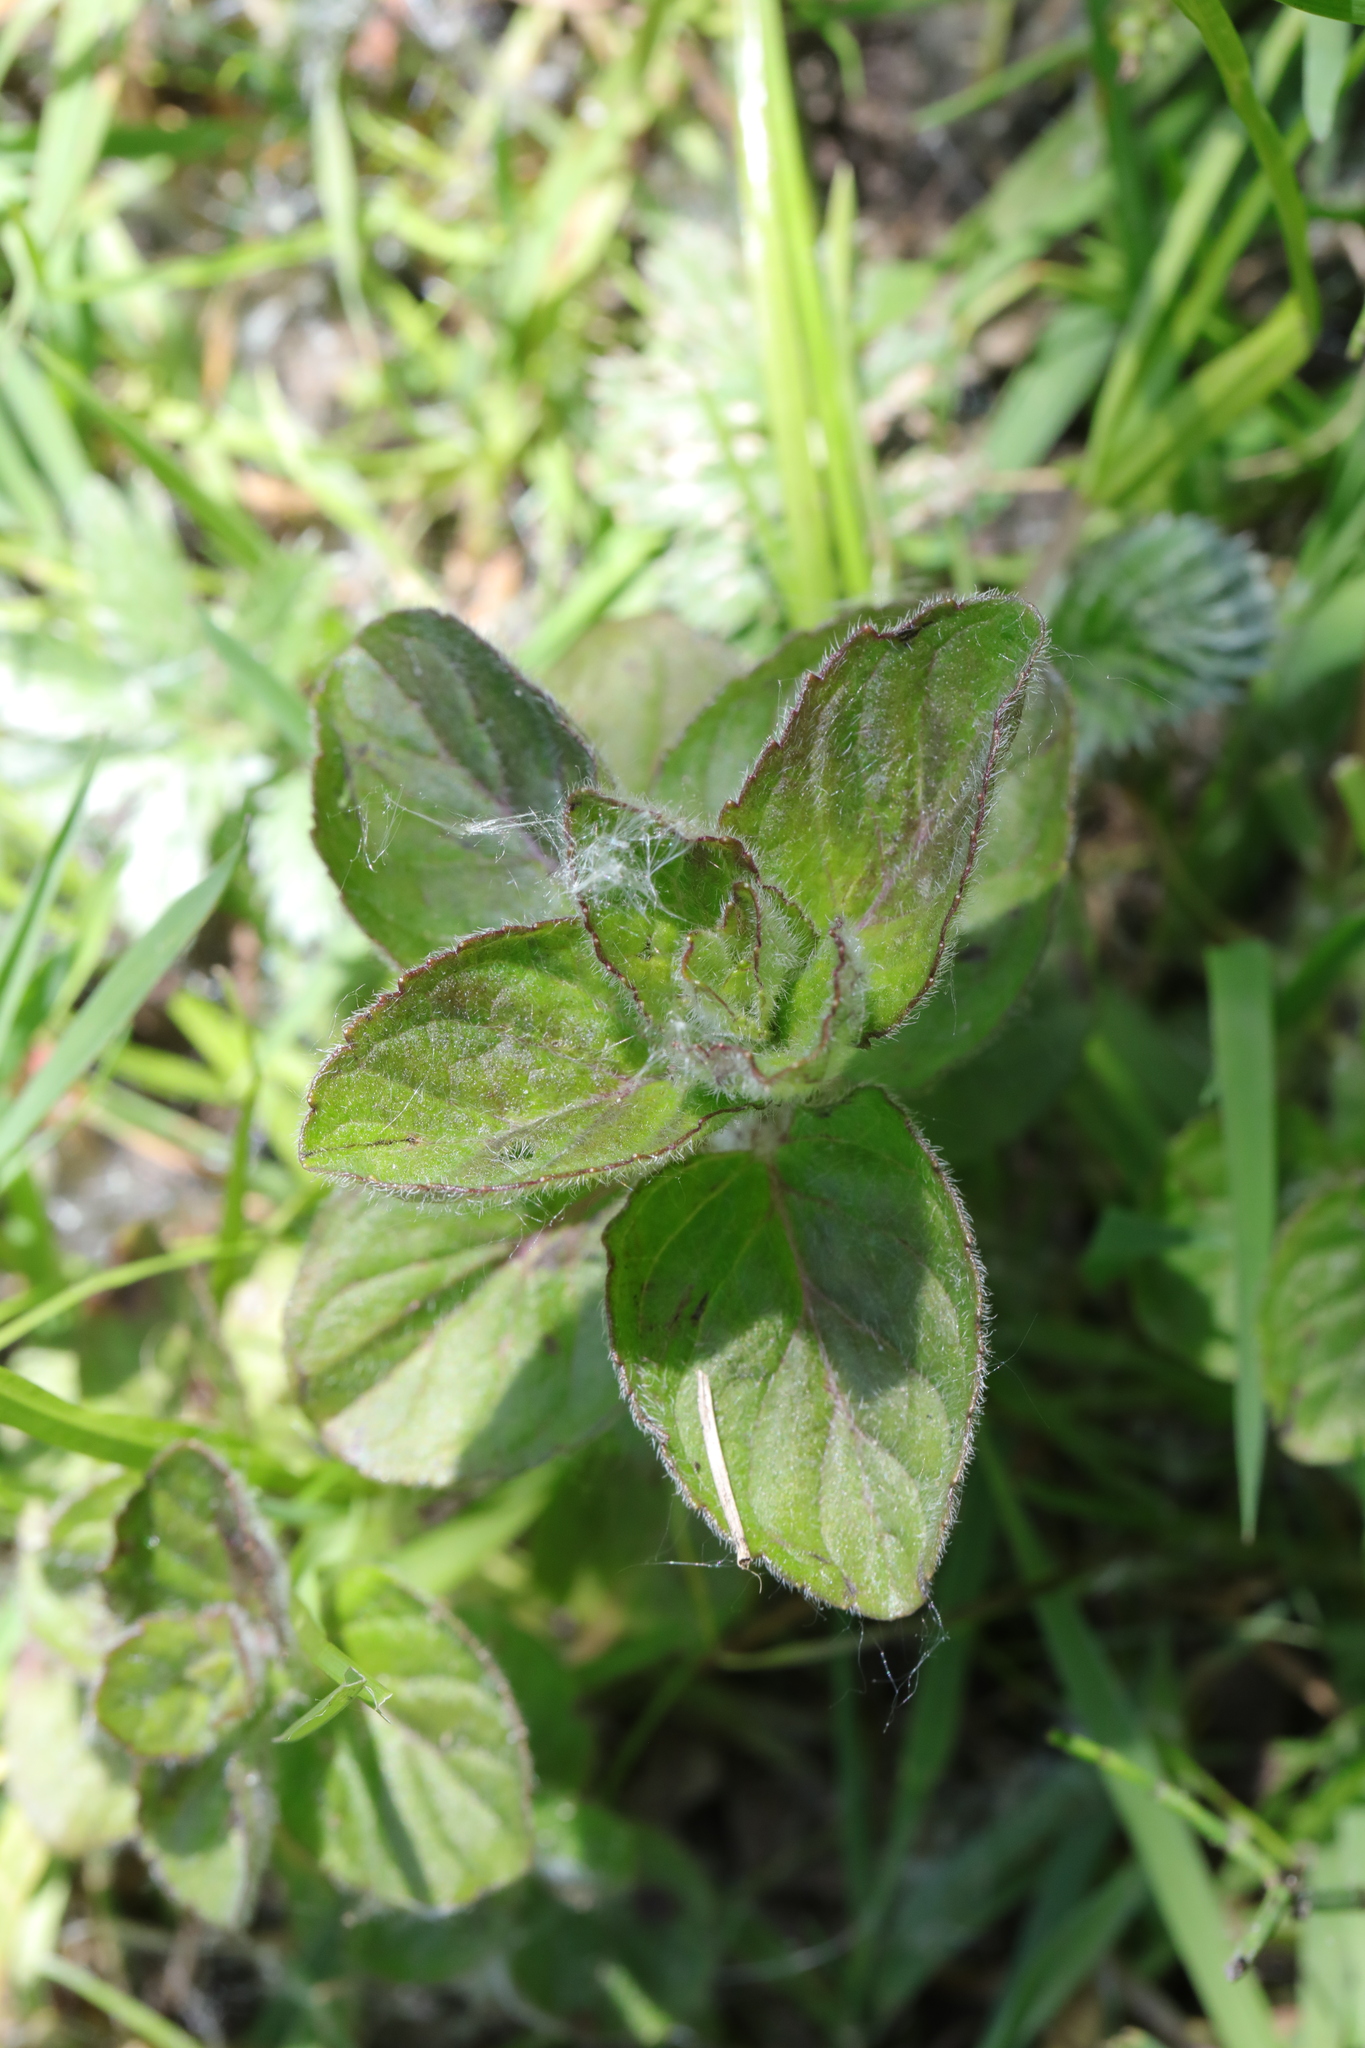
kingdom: Plantae
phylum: Tracheophyta
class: Magnoliopsida
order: Lamiales
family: Lamiaceae
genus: Mentha
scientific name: Mentha aquatica
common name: Water mint
